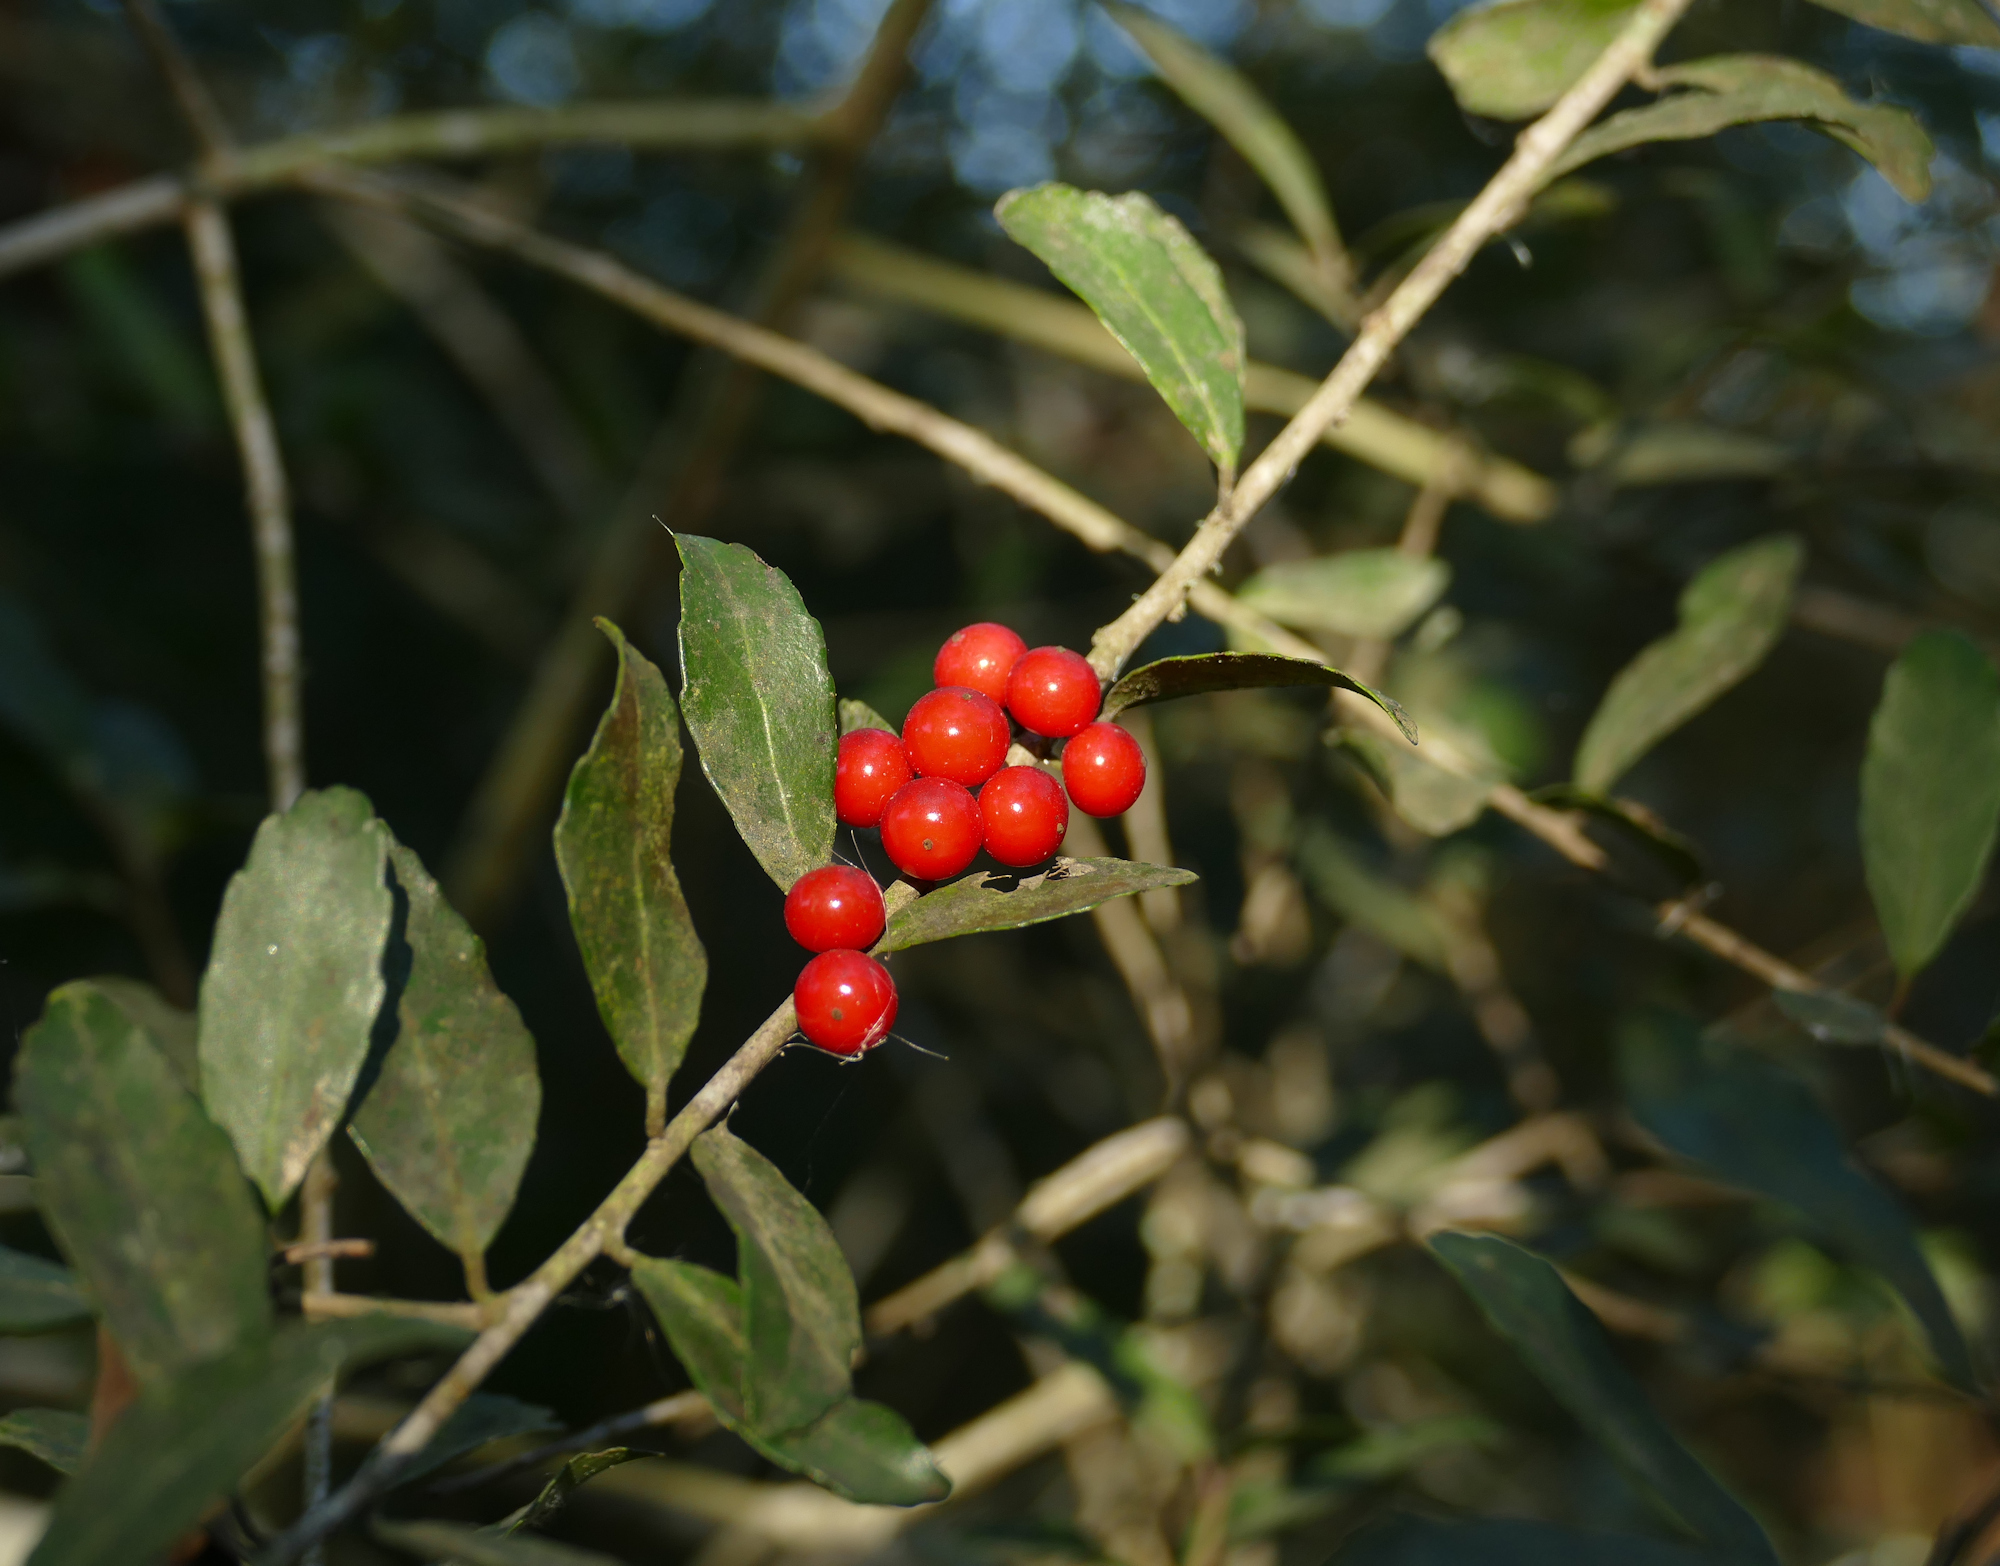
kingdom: Plantae
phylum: Tracheophyta
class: Magnoliopsida
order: Aquifoliales
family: Aquifoliaceae
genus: Ilex
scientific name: Ilex vomitoria
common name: Yaupon holly
